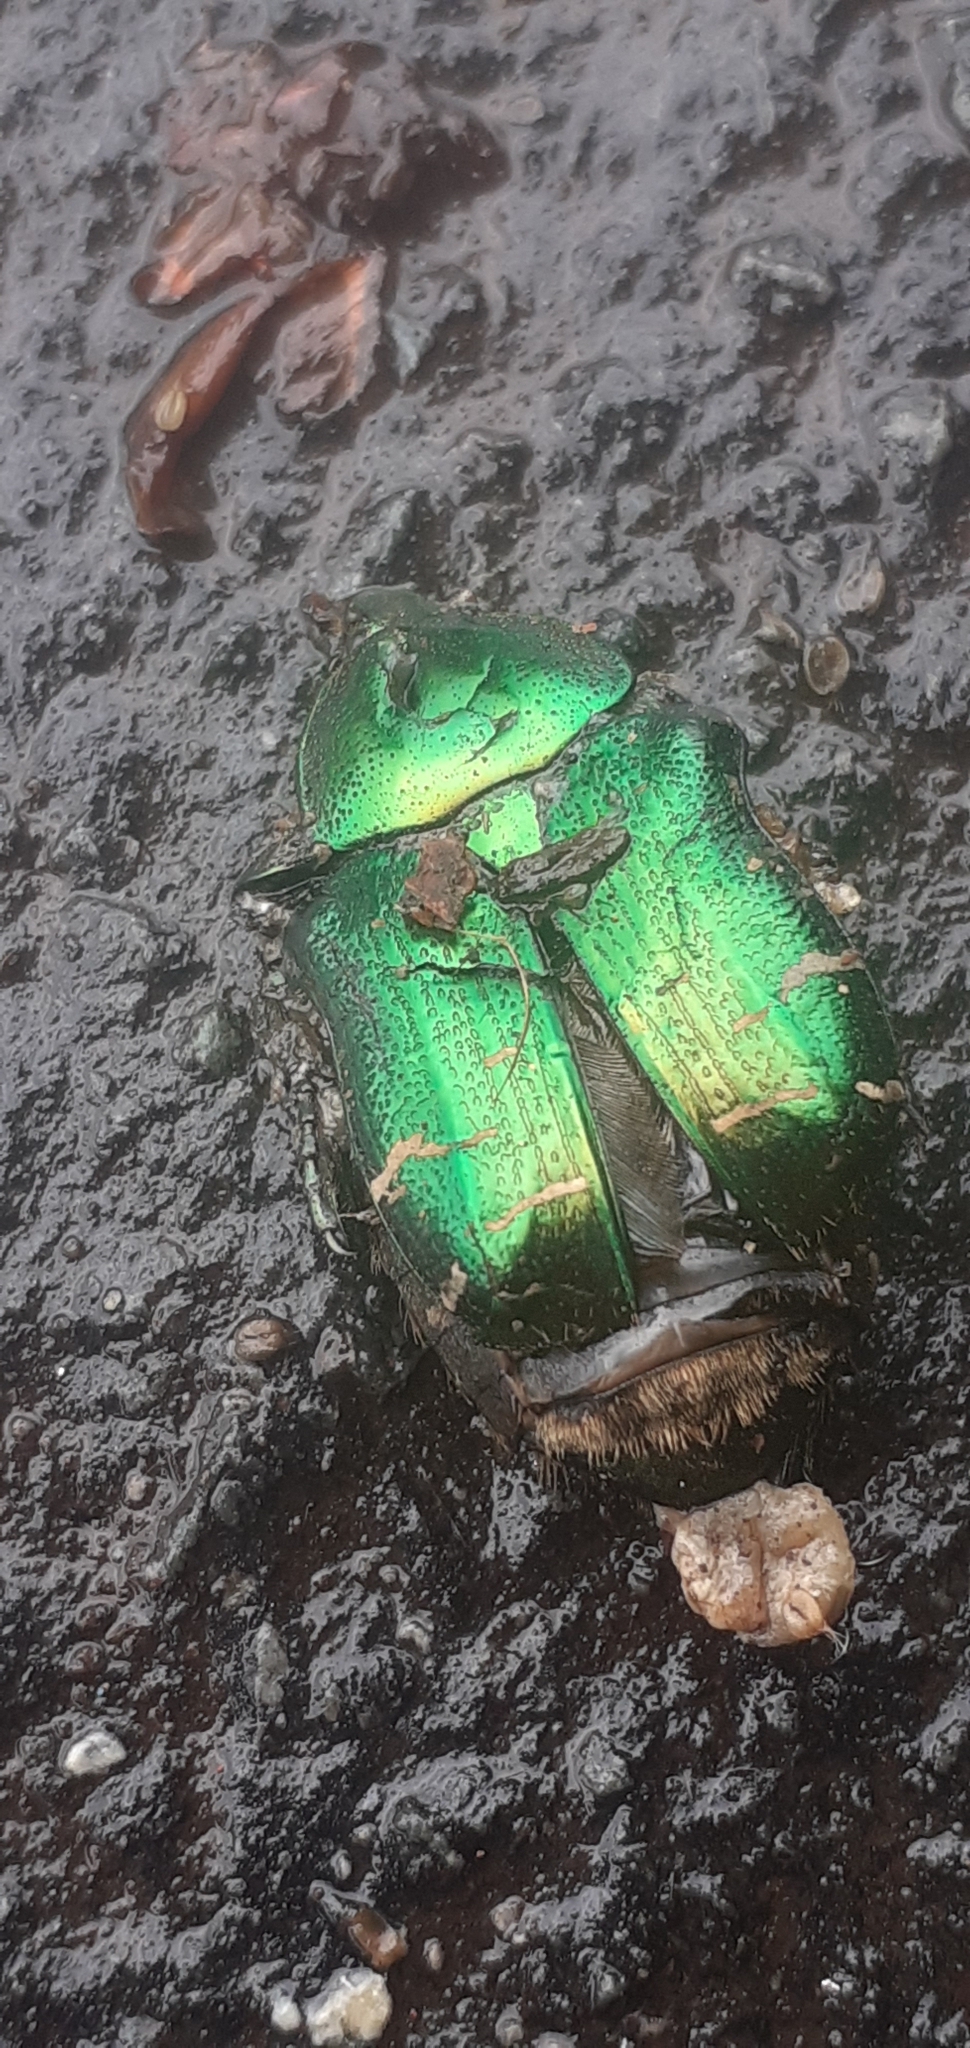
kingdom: Animalia
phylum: Arthropoda
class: Insecta
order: Coleoptera
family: Scarabaeidae
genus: Cetonia
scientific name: Cetonia aurata
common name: Rose chafer
